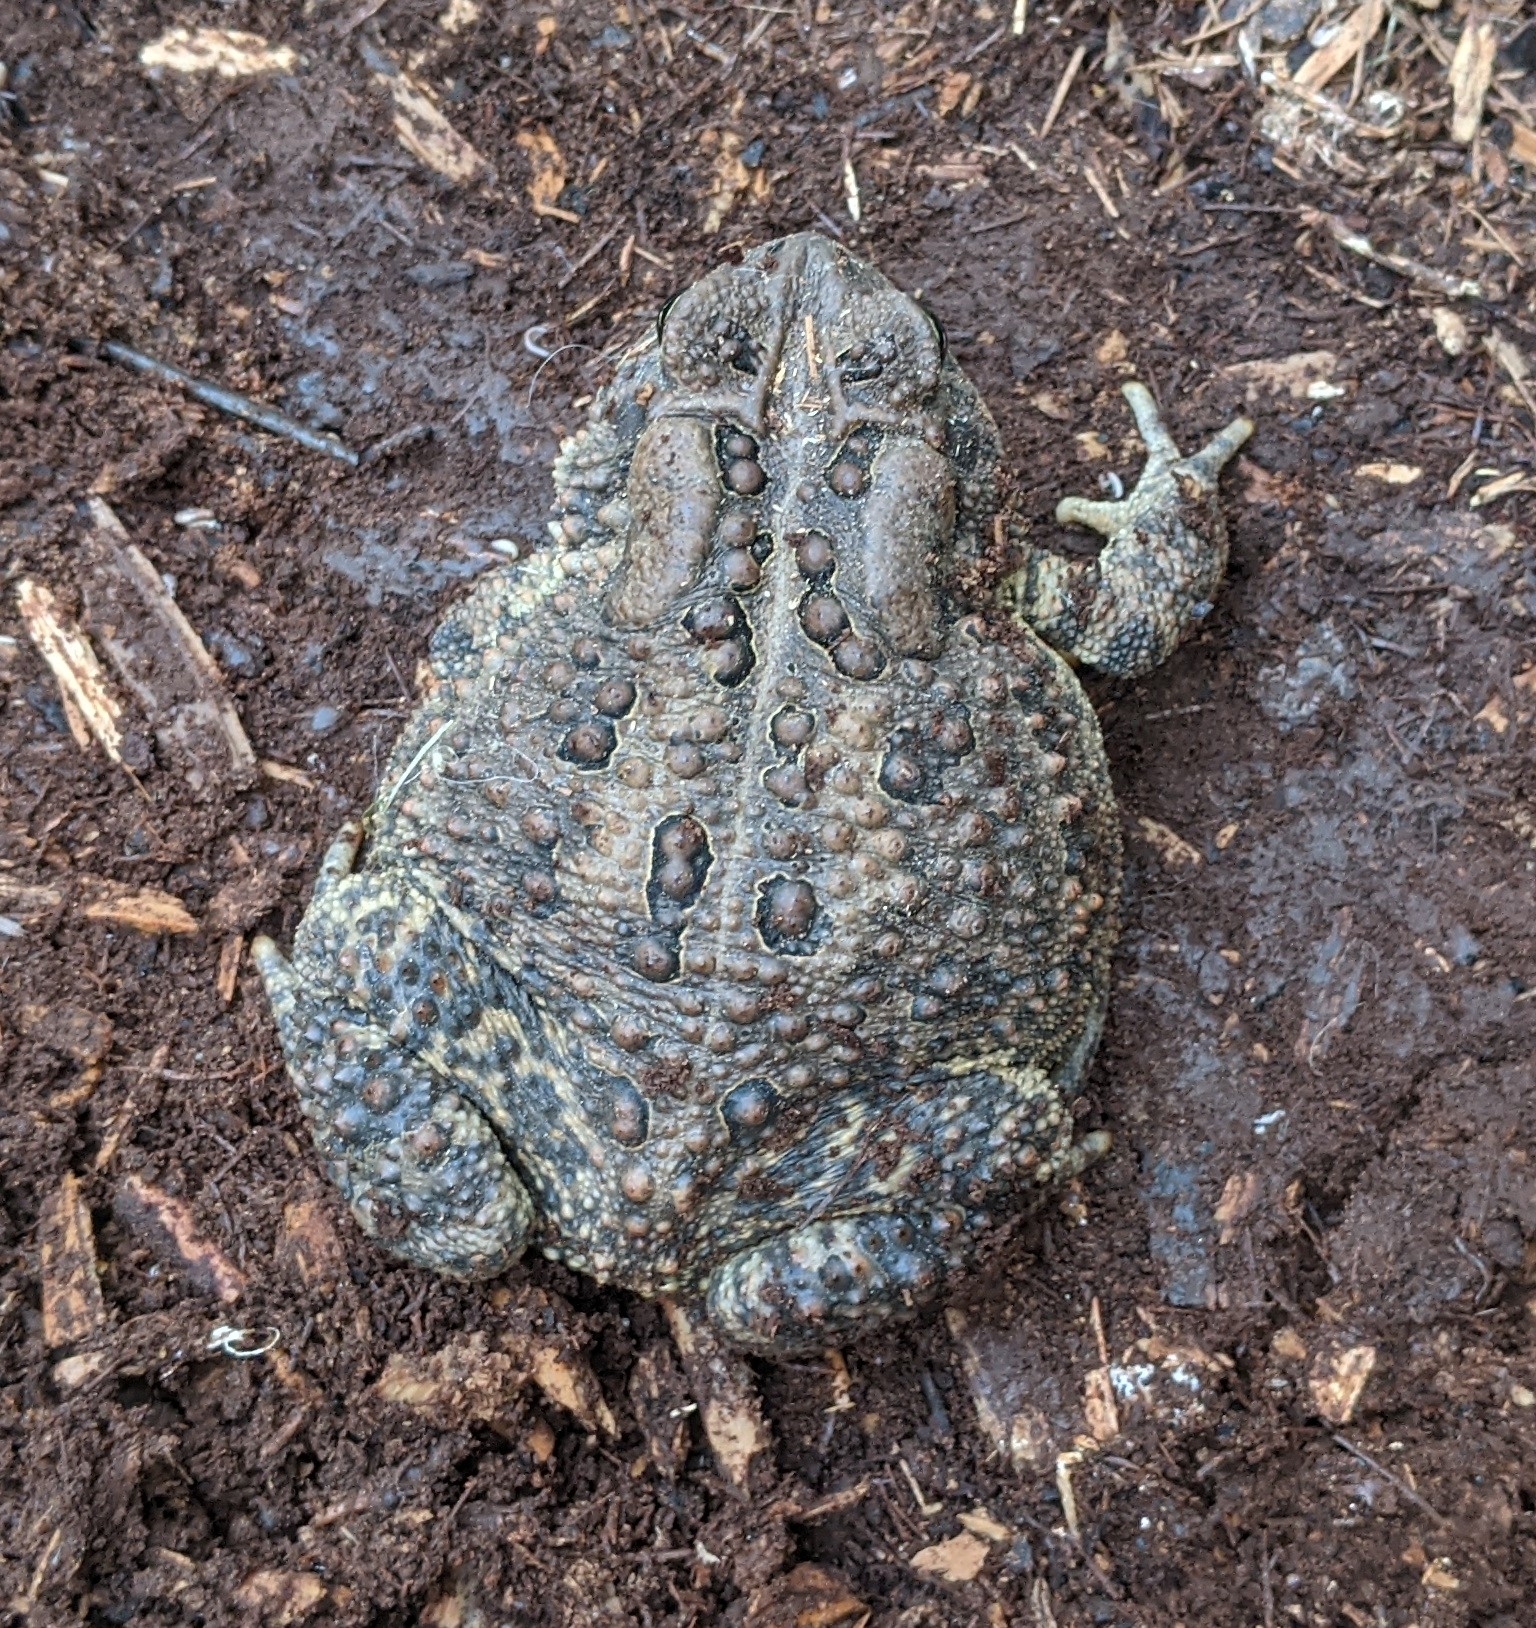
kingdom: Animalia
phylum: Chordata
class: Amphibia
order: Anura
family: Bufonidae
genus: Anaxyrus
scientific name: Anaxyrus americanus
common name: American toad
